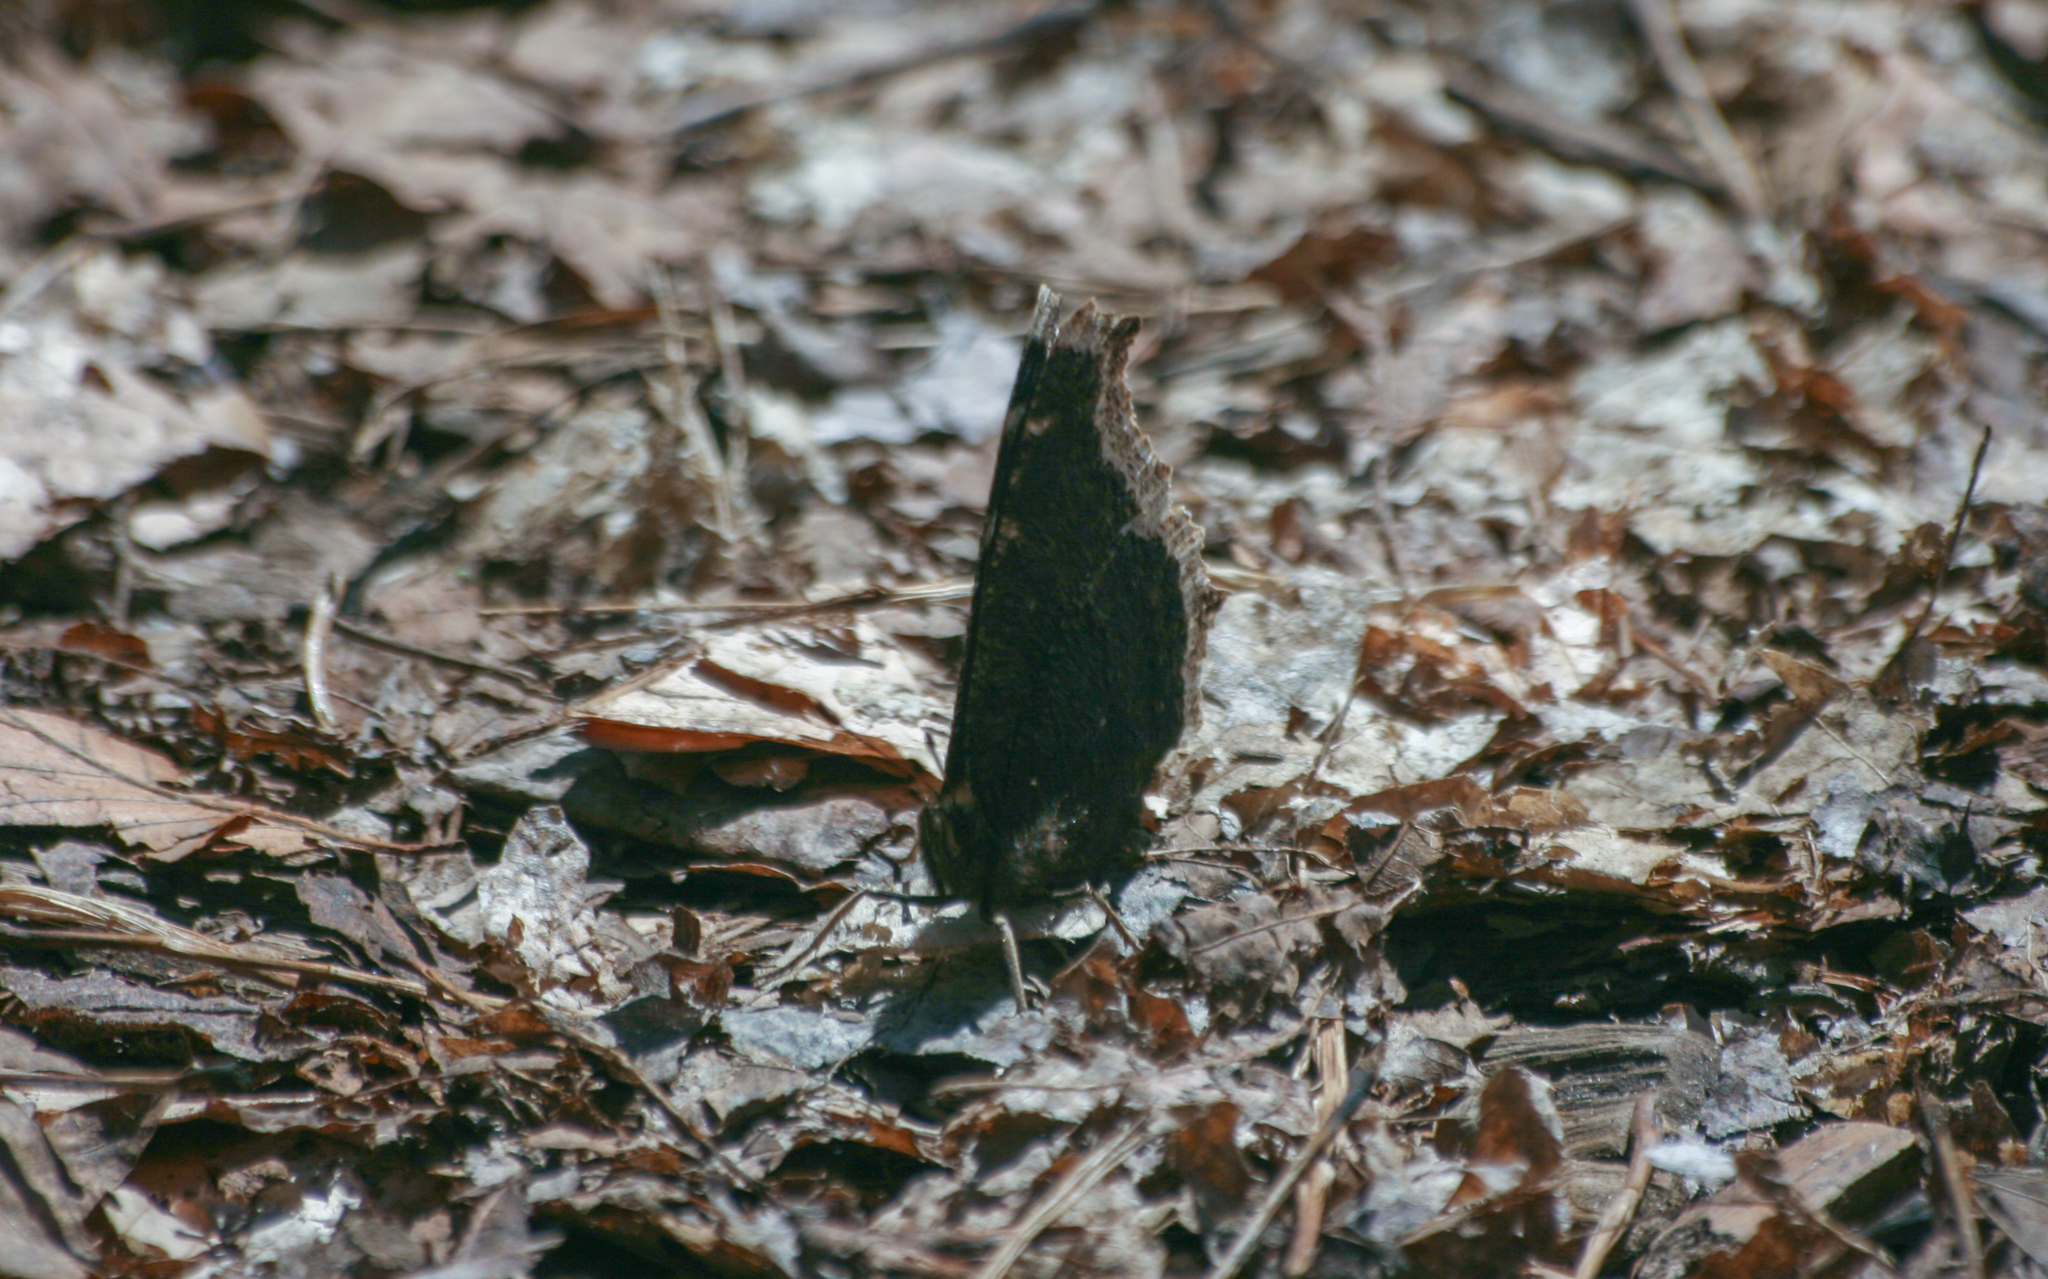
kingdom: Animalia
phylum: Arthropoda
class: Insecta
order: Lepidoptera
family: Nymphalidae
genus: Nymphalis
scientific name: Nymphalis antiopa
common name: Camberwell beauty
